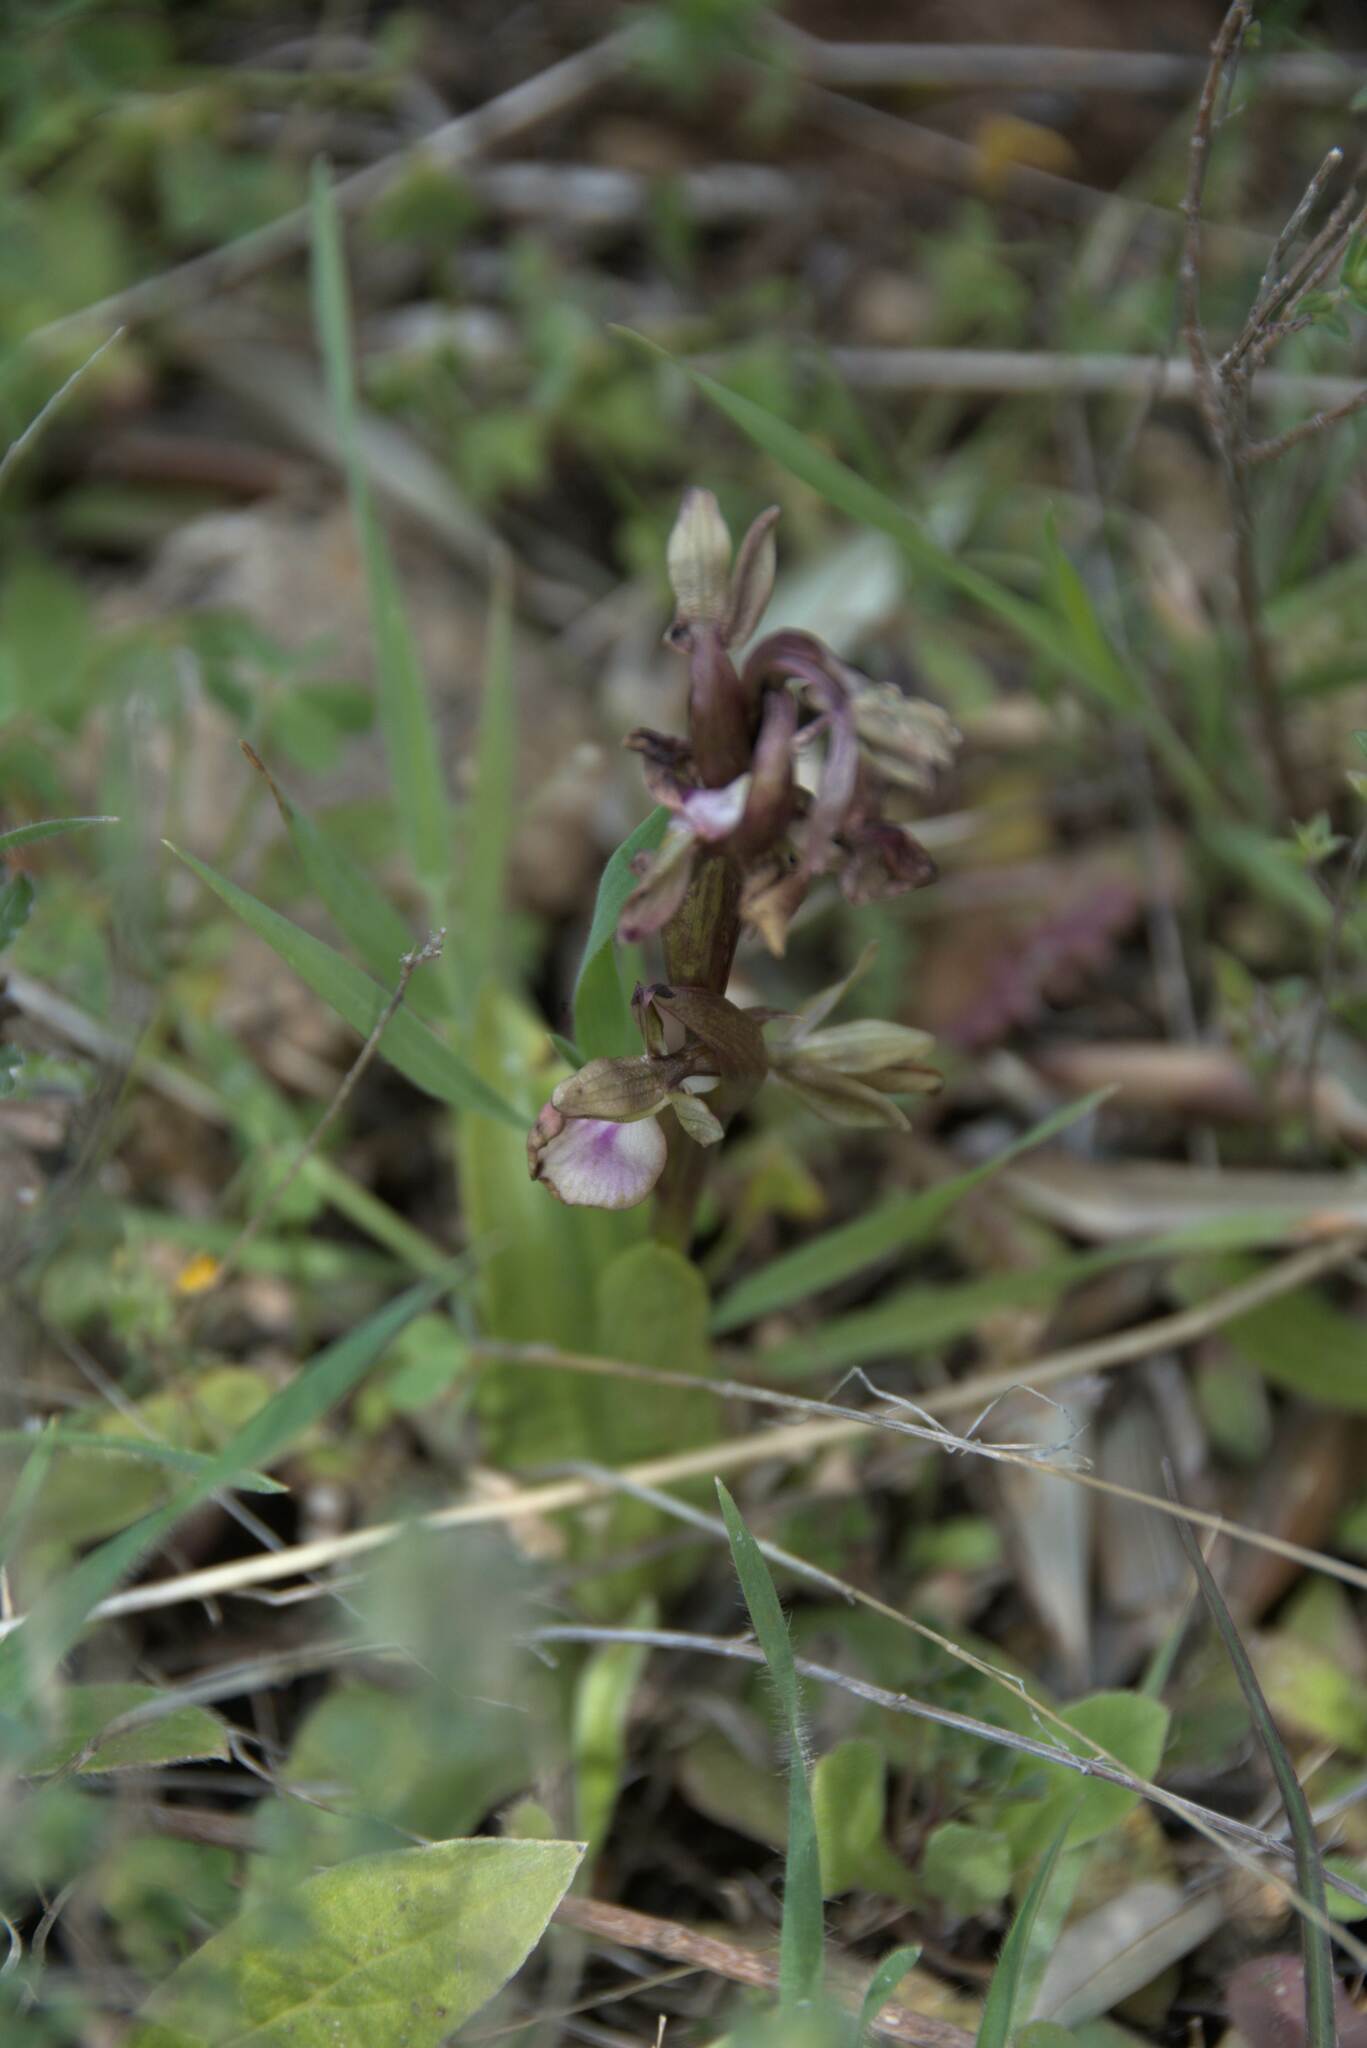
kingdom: Plantae
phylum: Tracheophyta
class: Liliopsida
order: Asparagales
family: Orchidaceae
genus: Anacamptis
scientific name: Anacamptis collina
